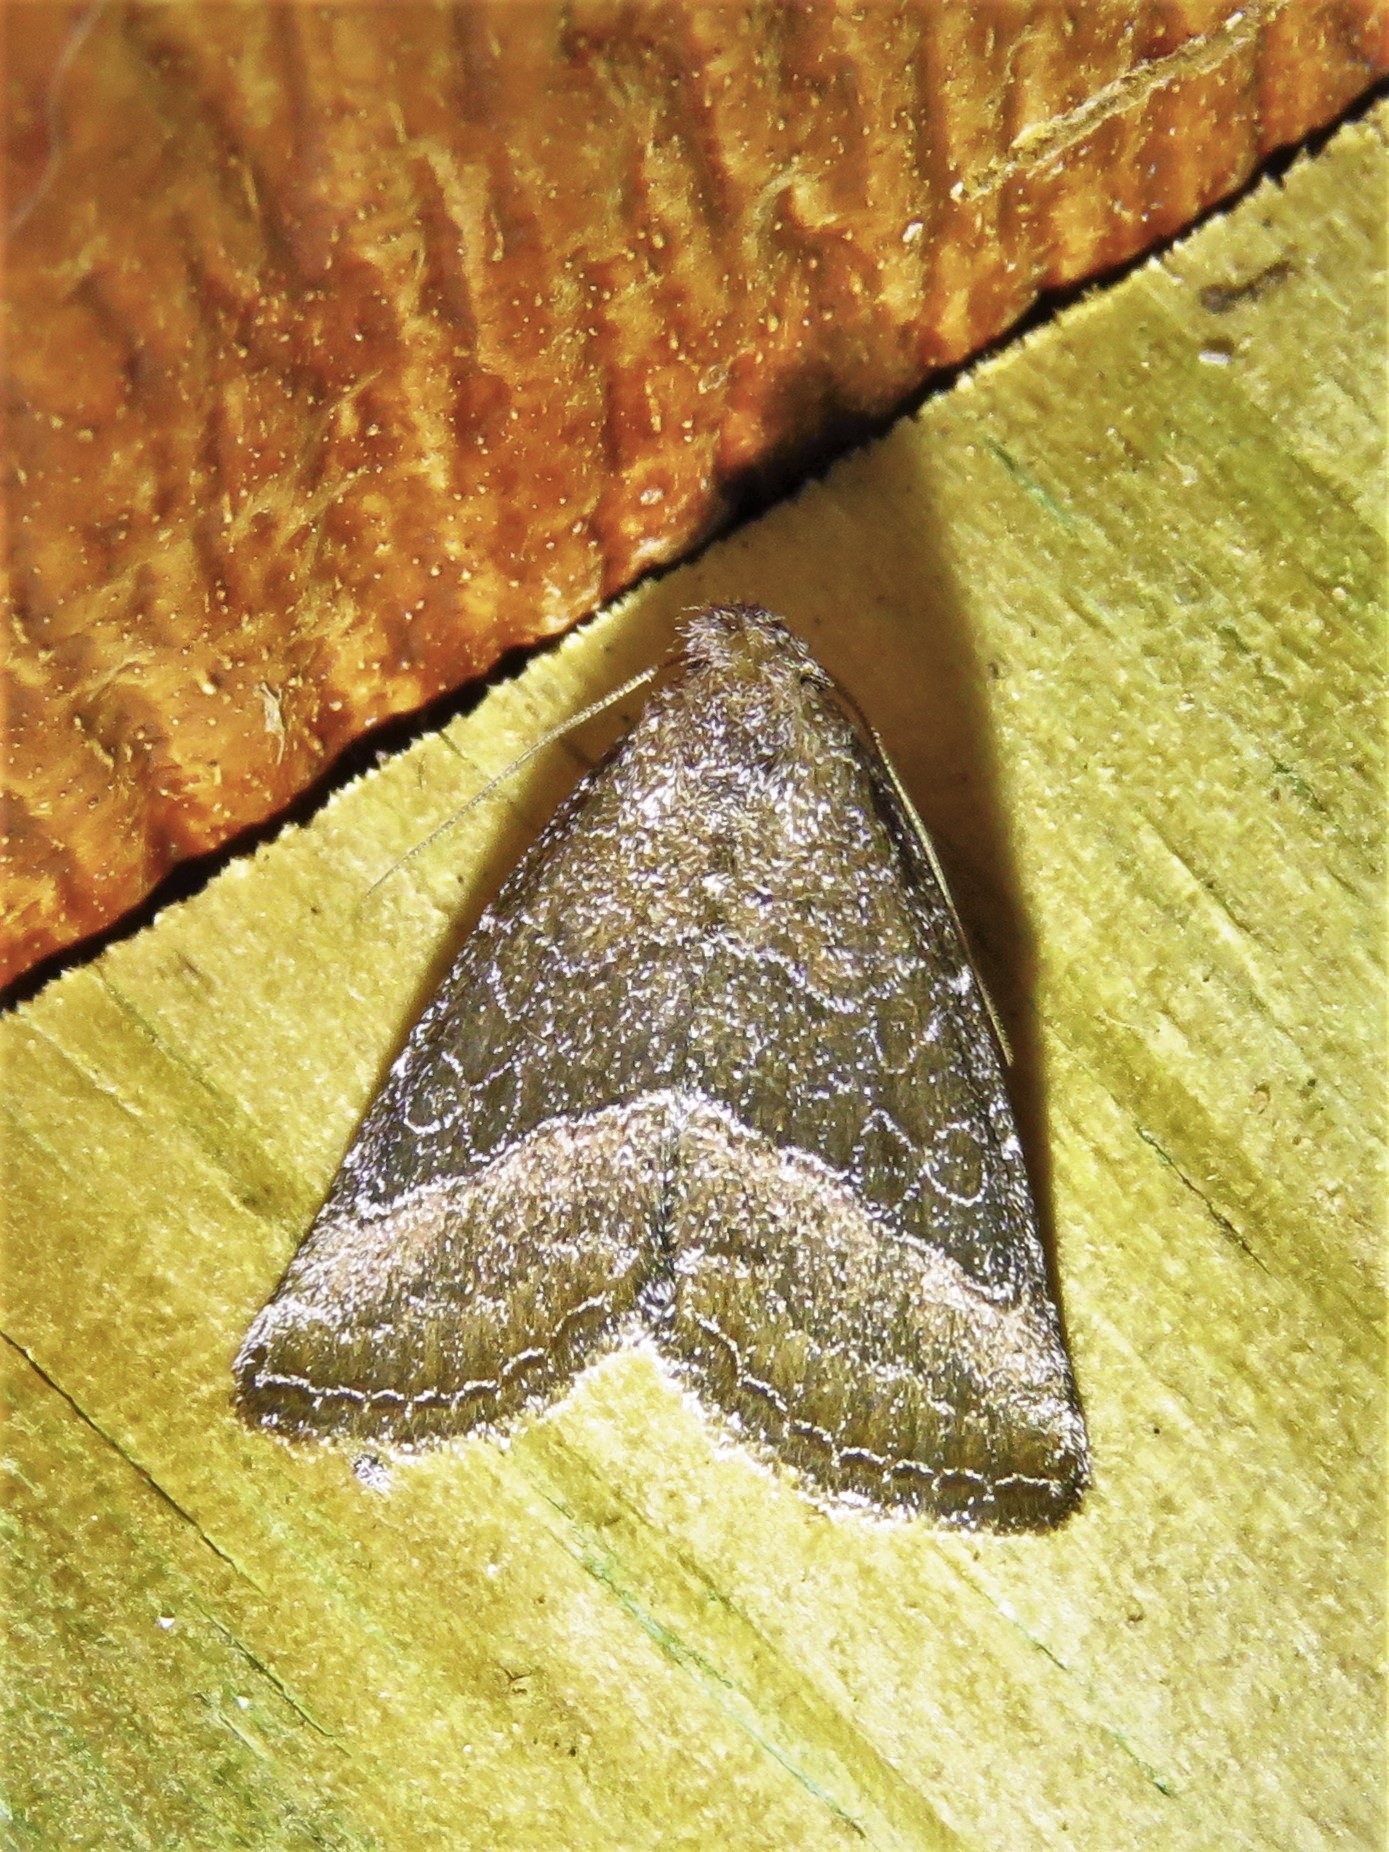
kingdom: Animalia
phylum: Arthropoda
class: Insecta
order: Lepidoptera
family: Noctuidae
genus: Ogdoconta
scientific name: Ogdoconta cinereola
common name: Common pinkband
